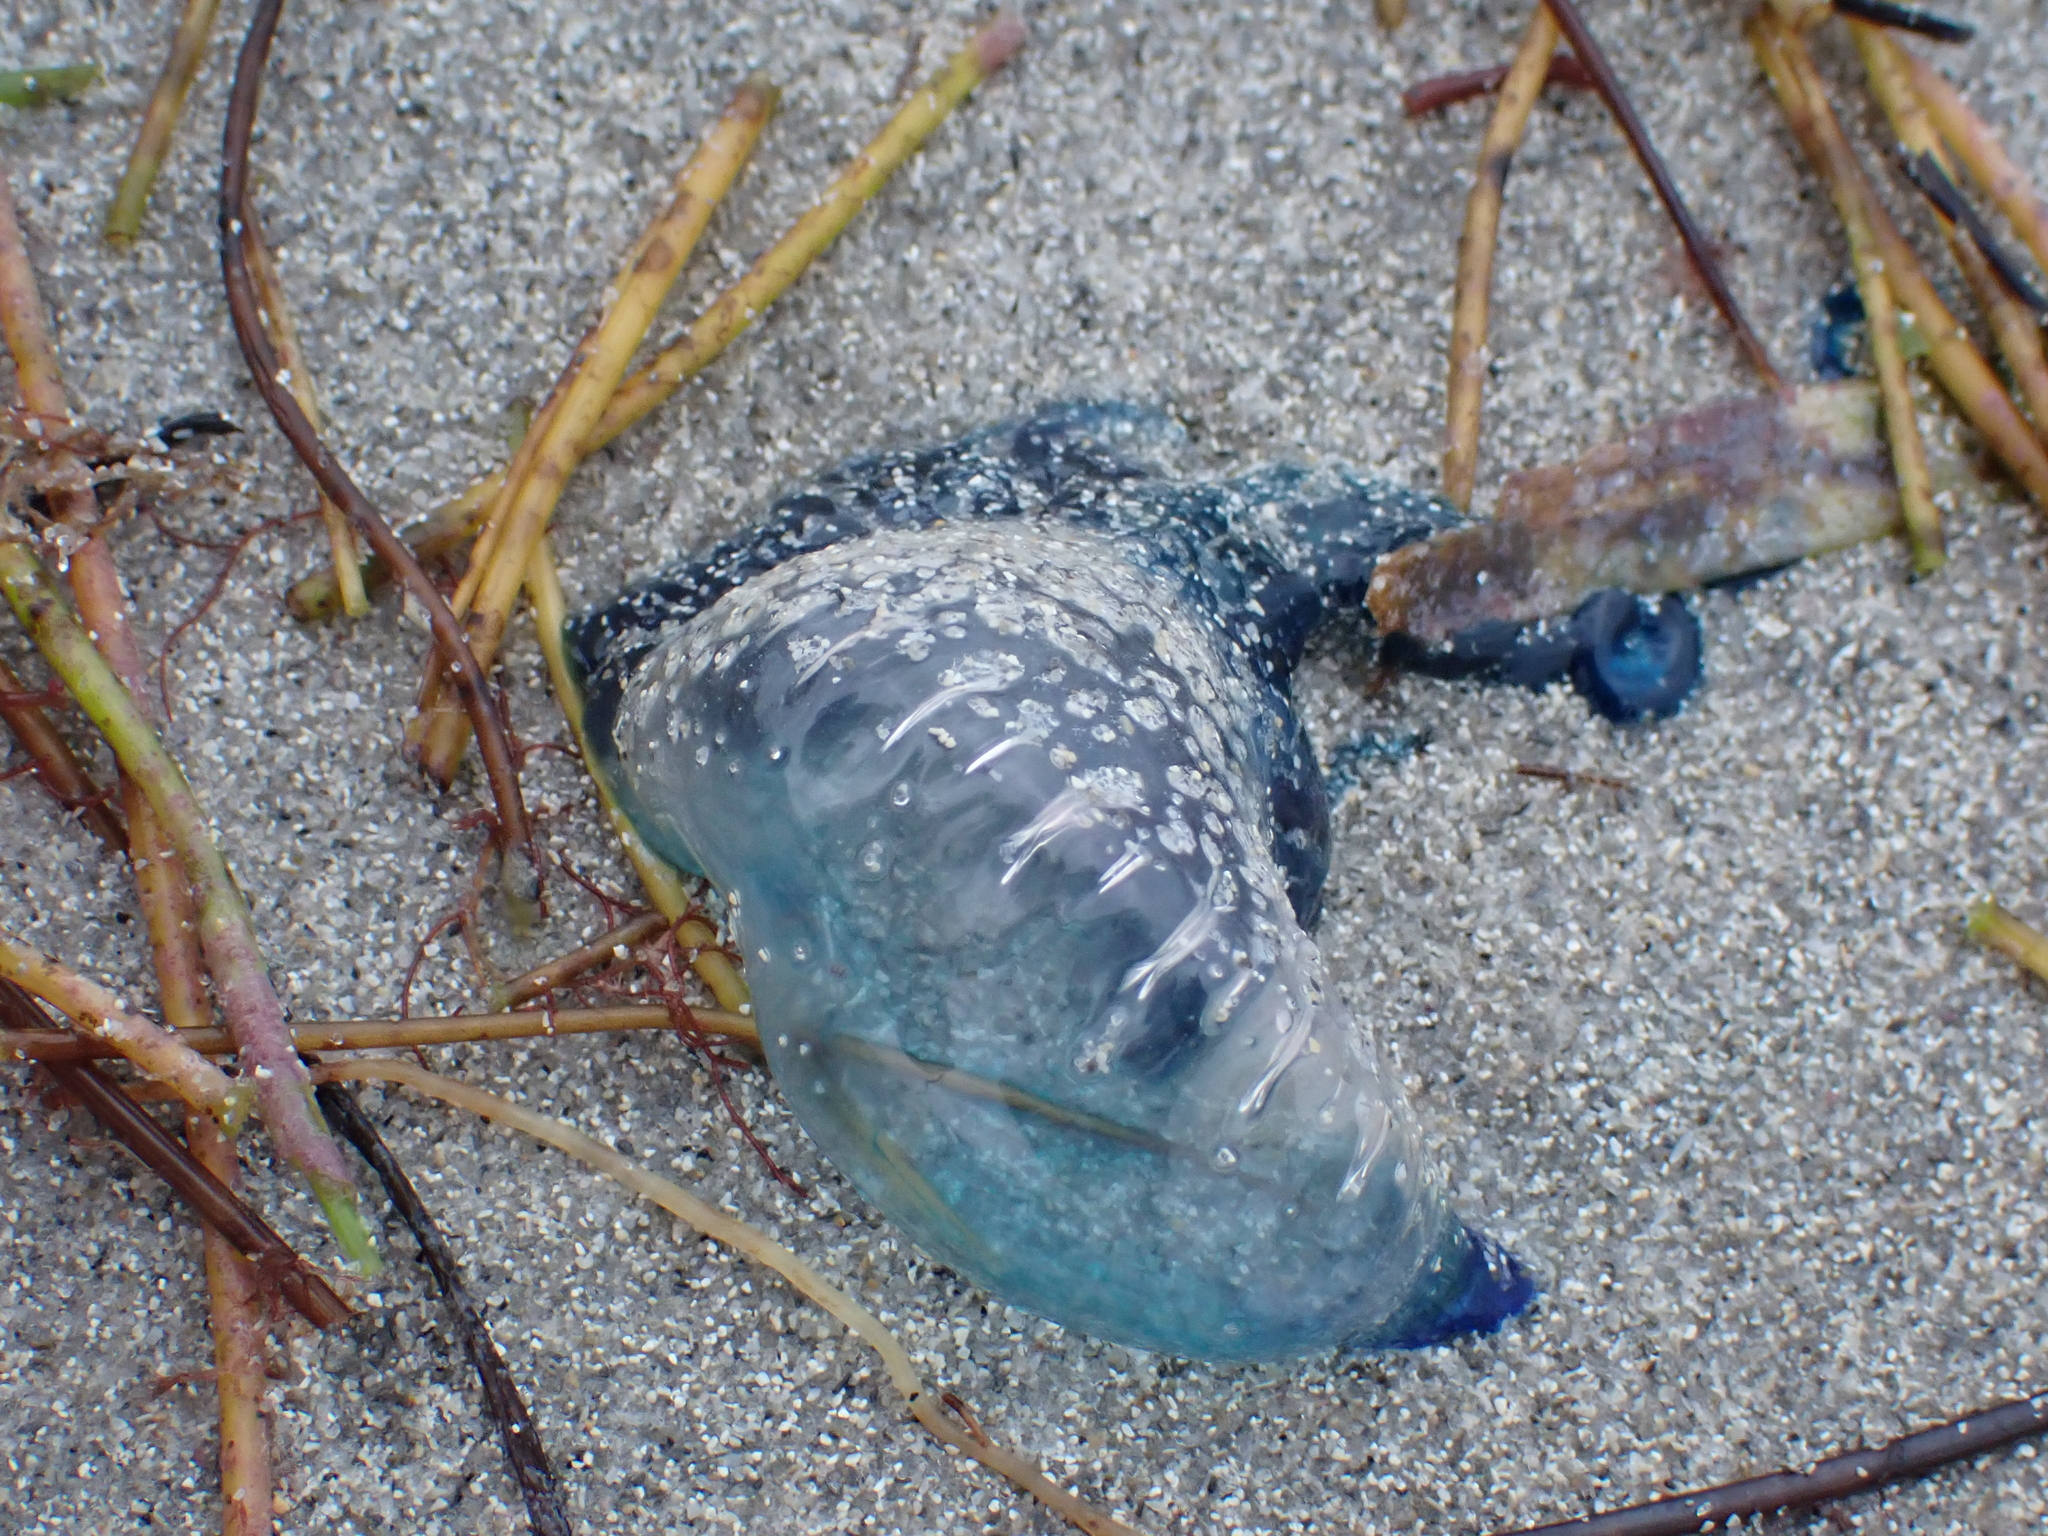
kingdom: Animalia
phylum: Cnidaria
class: Hydrozoa
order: Siphonophorae
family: Physaliidae
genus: Physalia
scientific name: Physalia physalis
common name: Portuguese man-of-war
